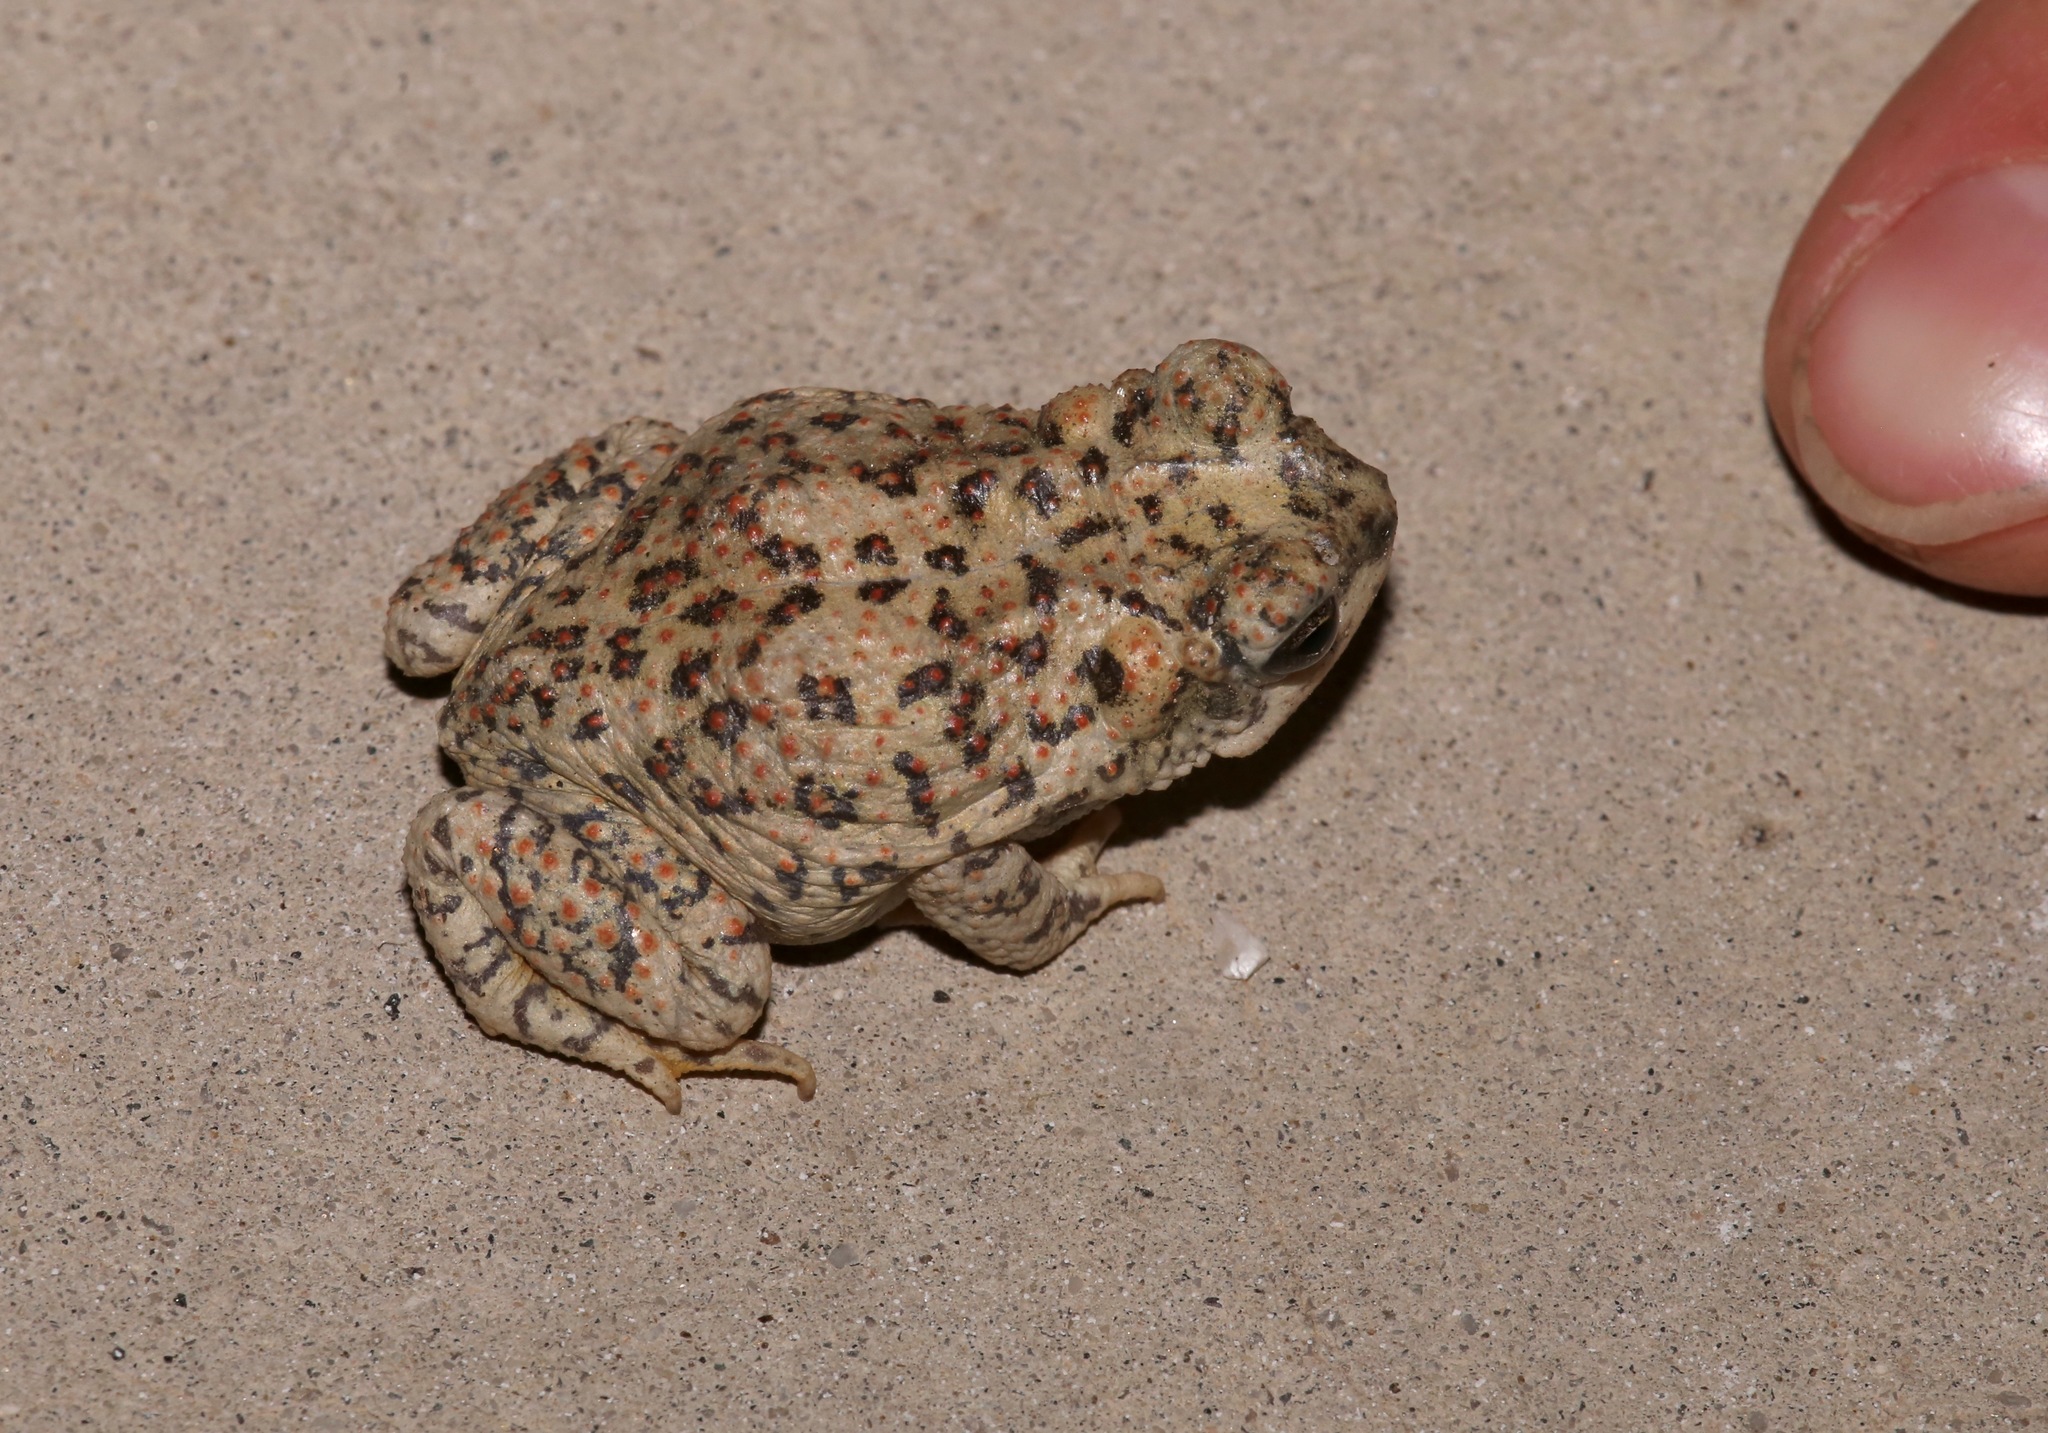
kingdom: Animalia
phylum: Chordata
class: Amphibia
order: Anura
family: Bufonidae
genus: Anaxyrus
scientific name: Anaxyrus punctatus
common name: Red-spotted toad
